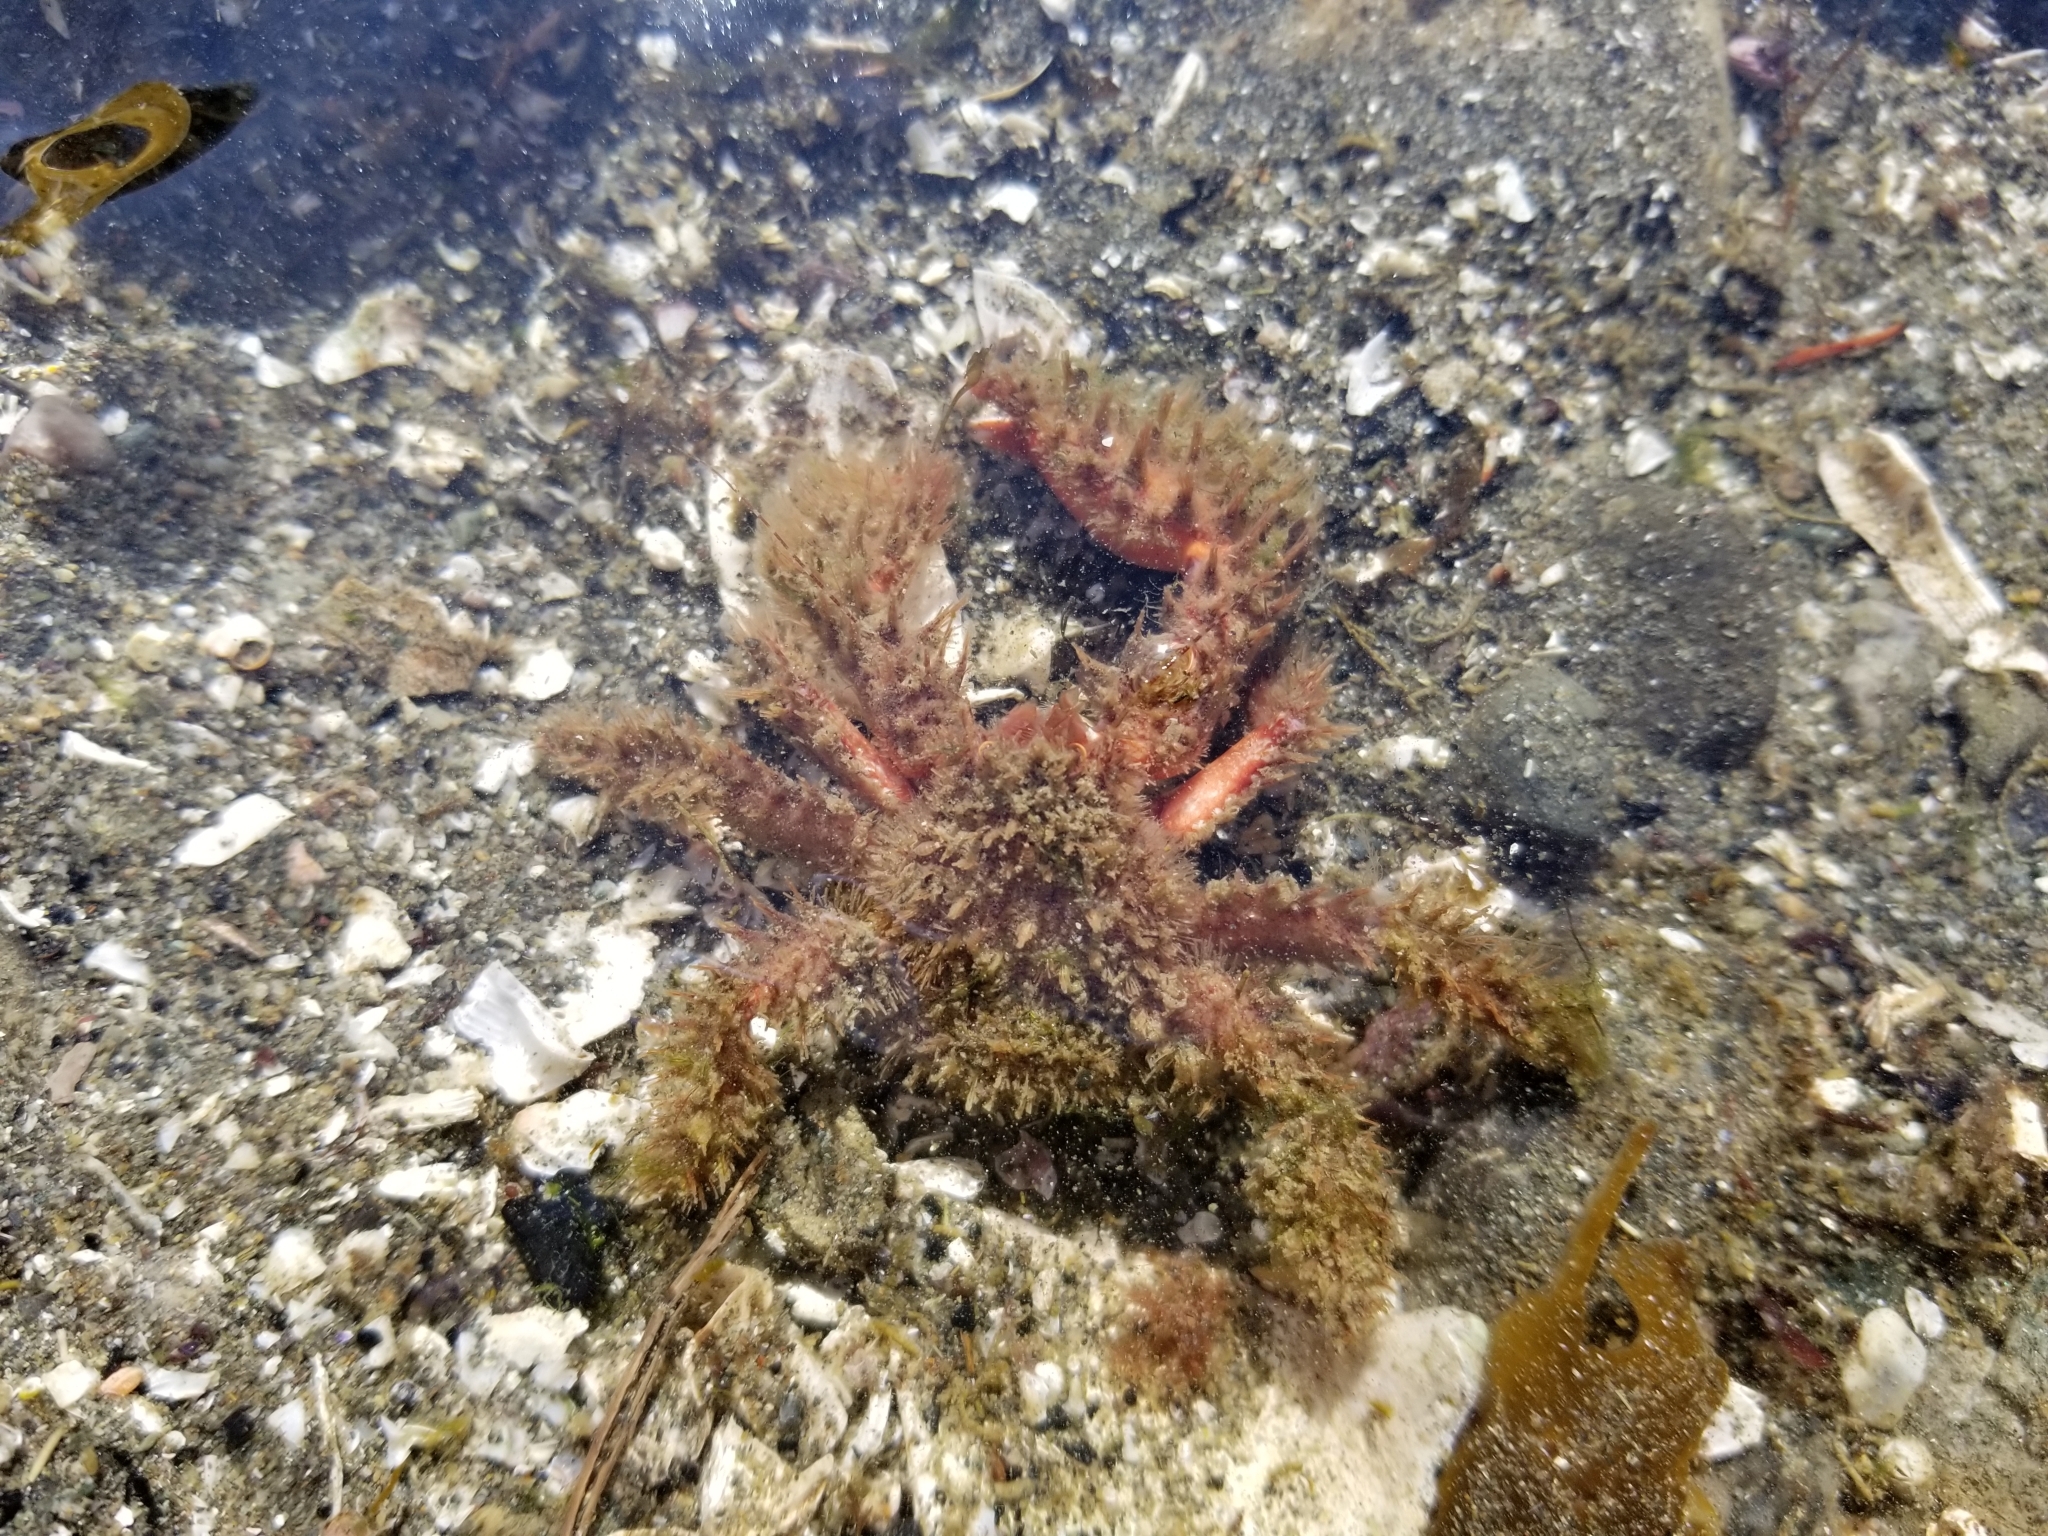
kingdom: Animalia
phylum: Arthropoda
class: Malacostraca
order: Decapoda
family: Hapalogastridae
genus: Hapalogaster
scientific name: Hapalogaster mertensii
